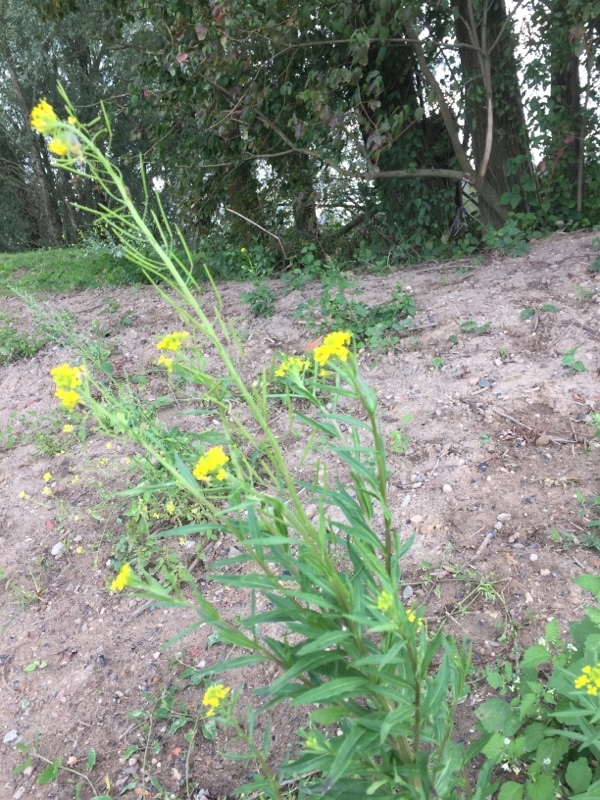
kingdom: Plantae
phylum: Tracheophyta
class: Magnoliopsida
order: Brassicales
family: Brassicaceae
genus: Erysimum
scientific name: Erysimum cheiranthoides
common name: Treacle mustard
